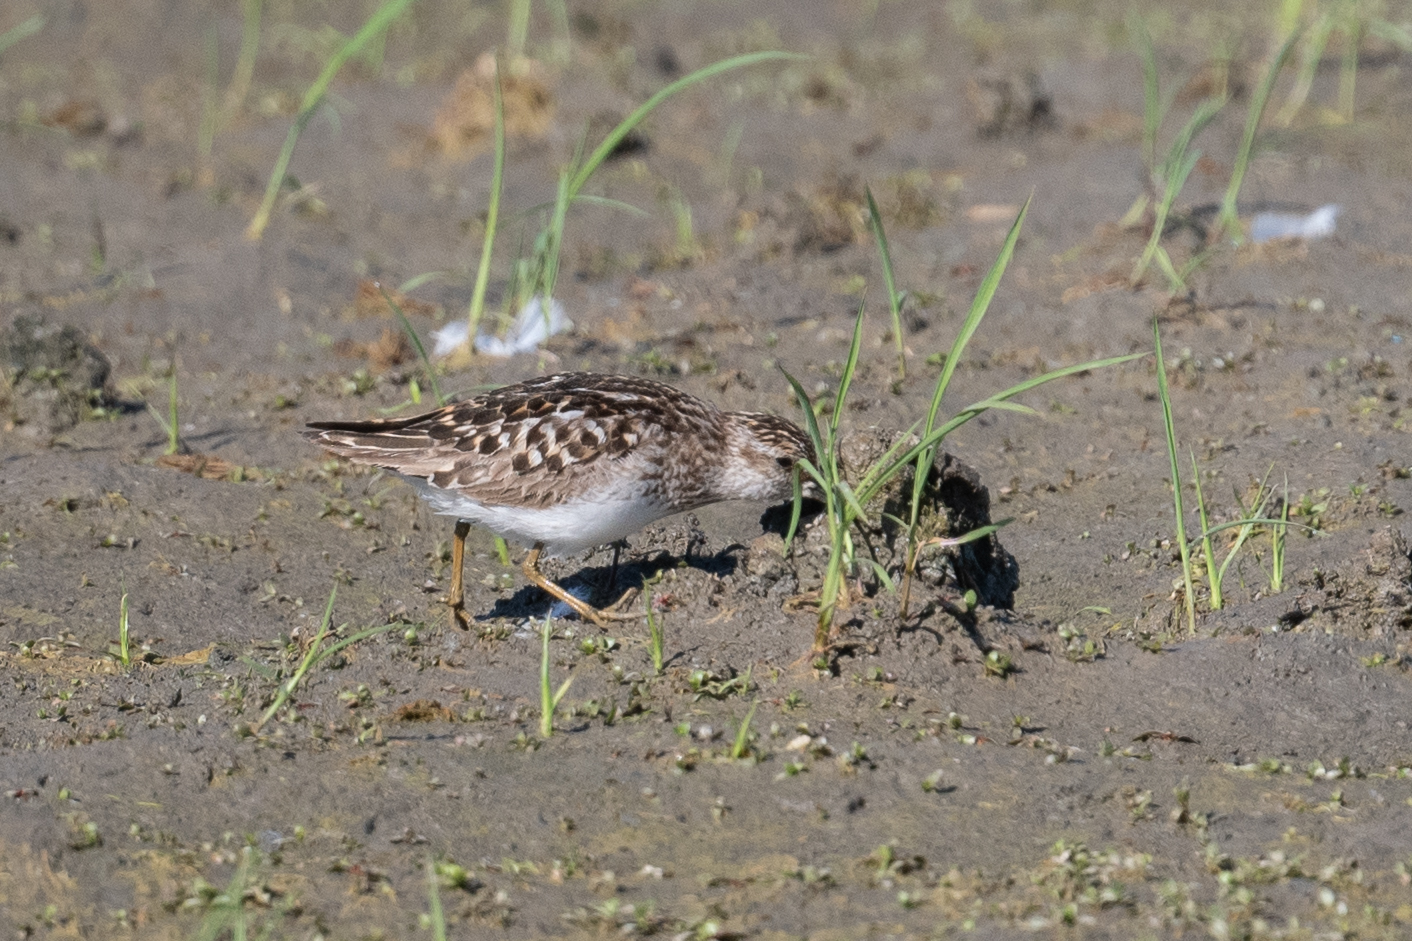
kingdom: Animalia
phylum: Chordata
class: Aves
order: Charadriiformes
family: Scolopacidae
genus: Calidris
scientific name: Calidris minutilla
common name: Least sandpiper
